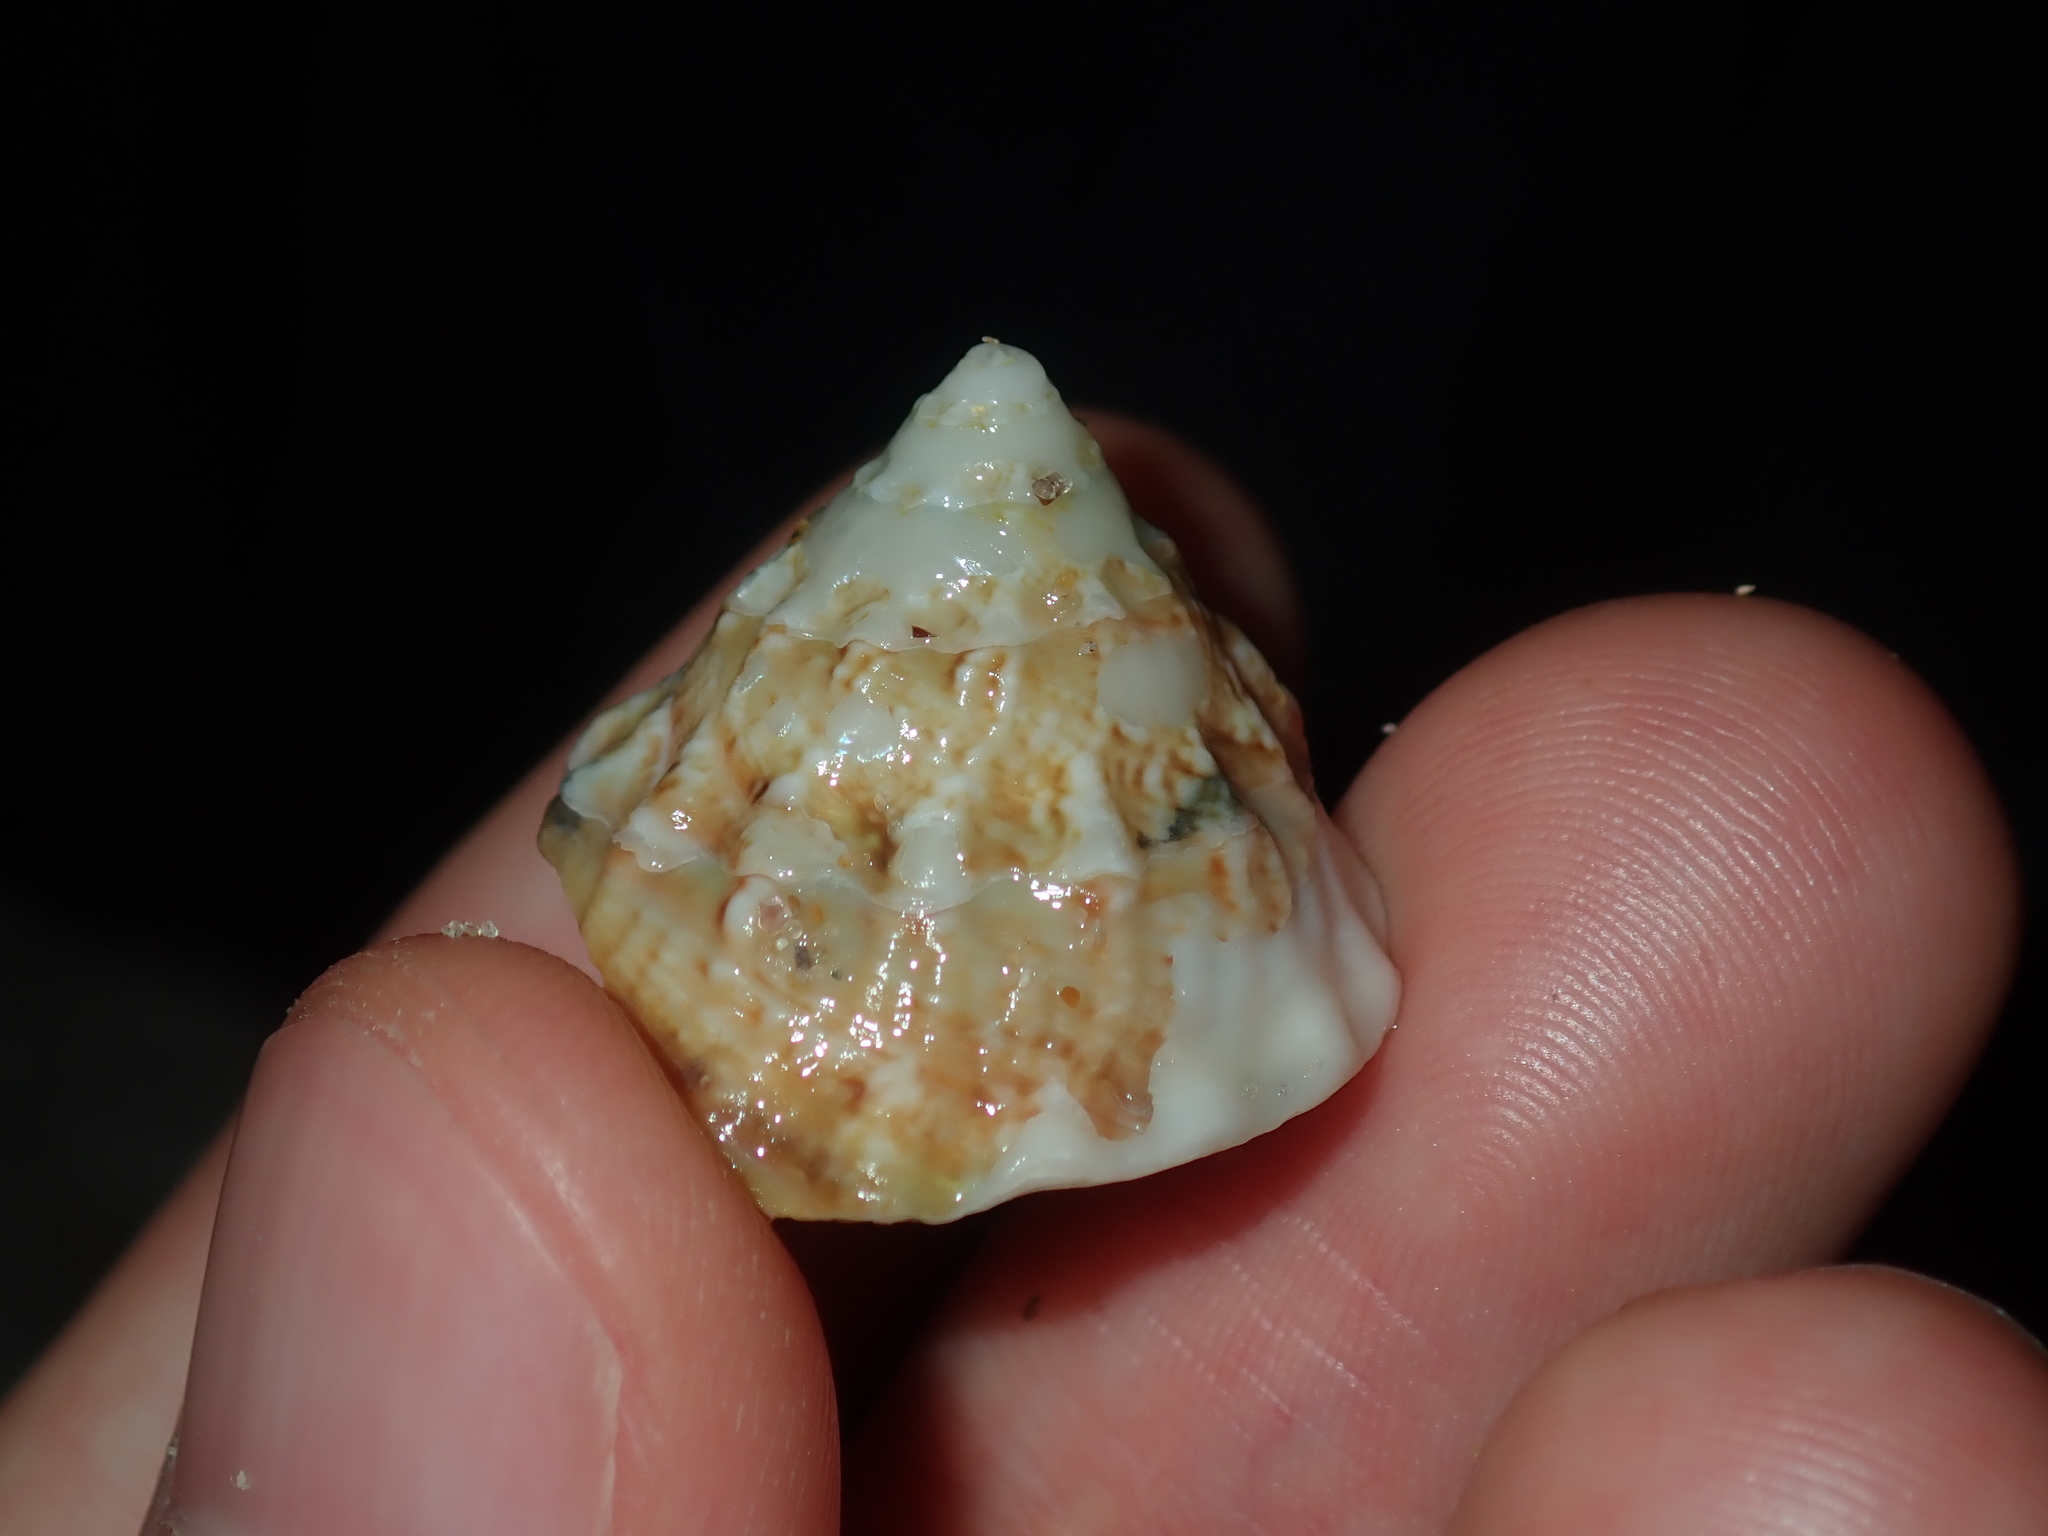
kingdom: Animalia
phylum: Mollusca
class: Gastropoda
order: Trochida
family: Turbinidae
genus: Astralium
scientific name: Astralium tentoriiforme
